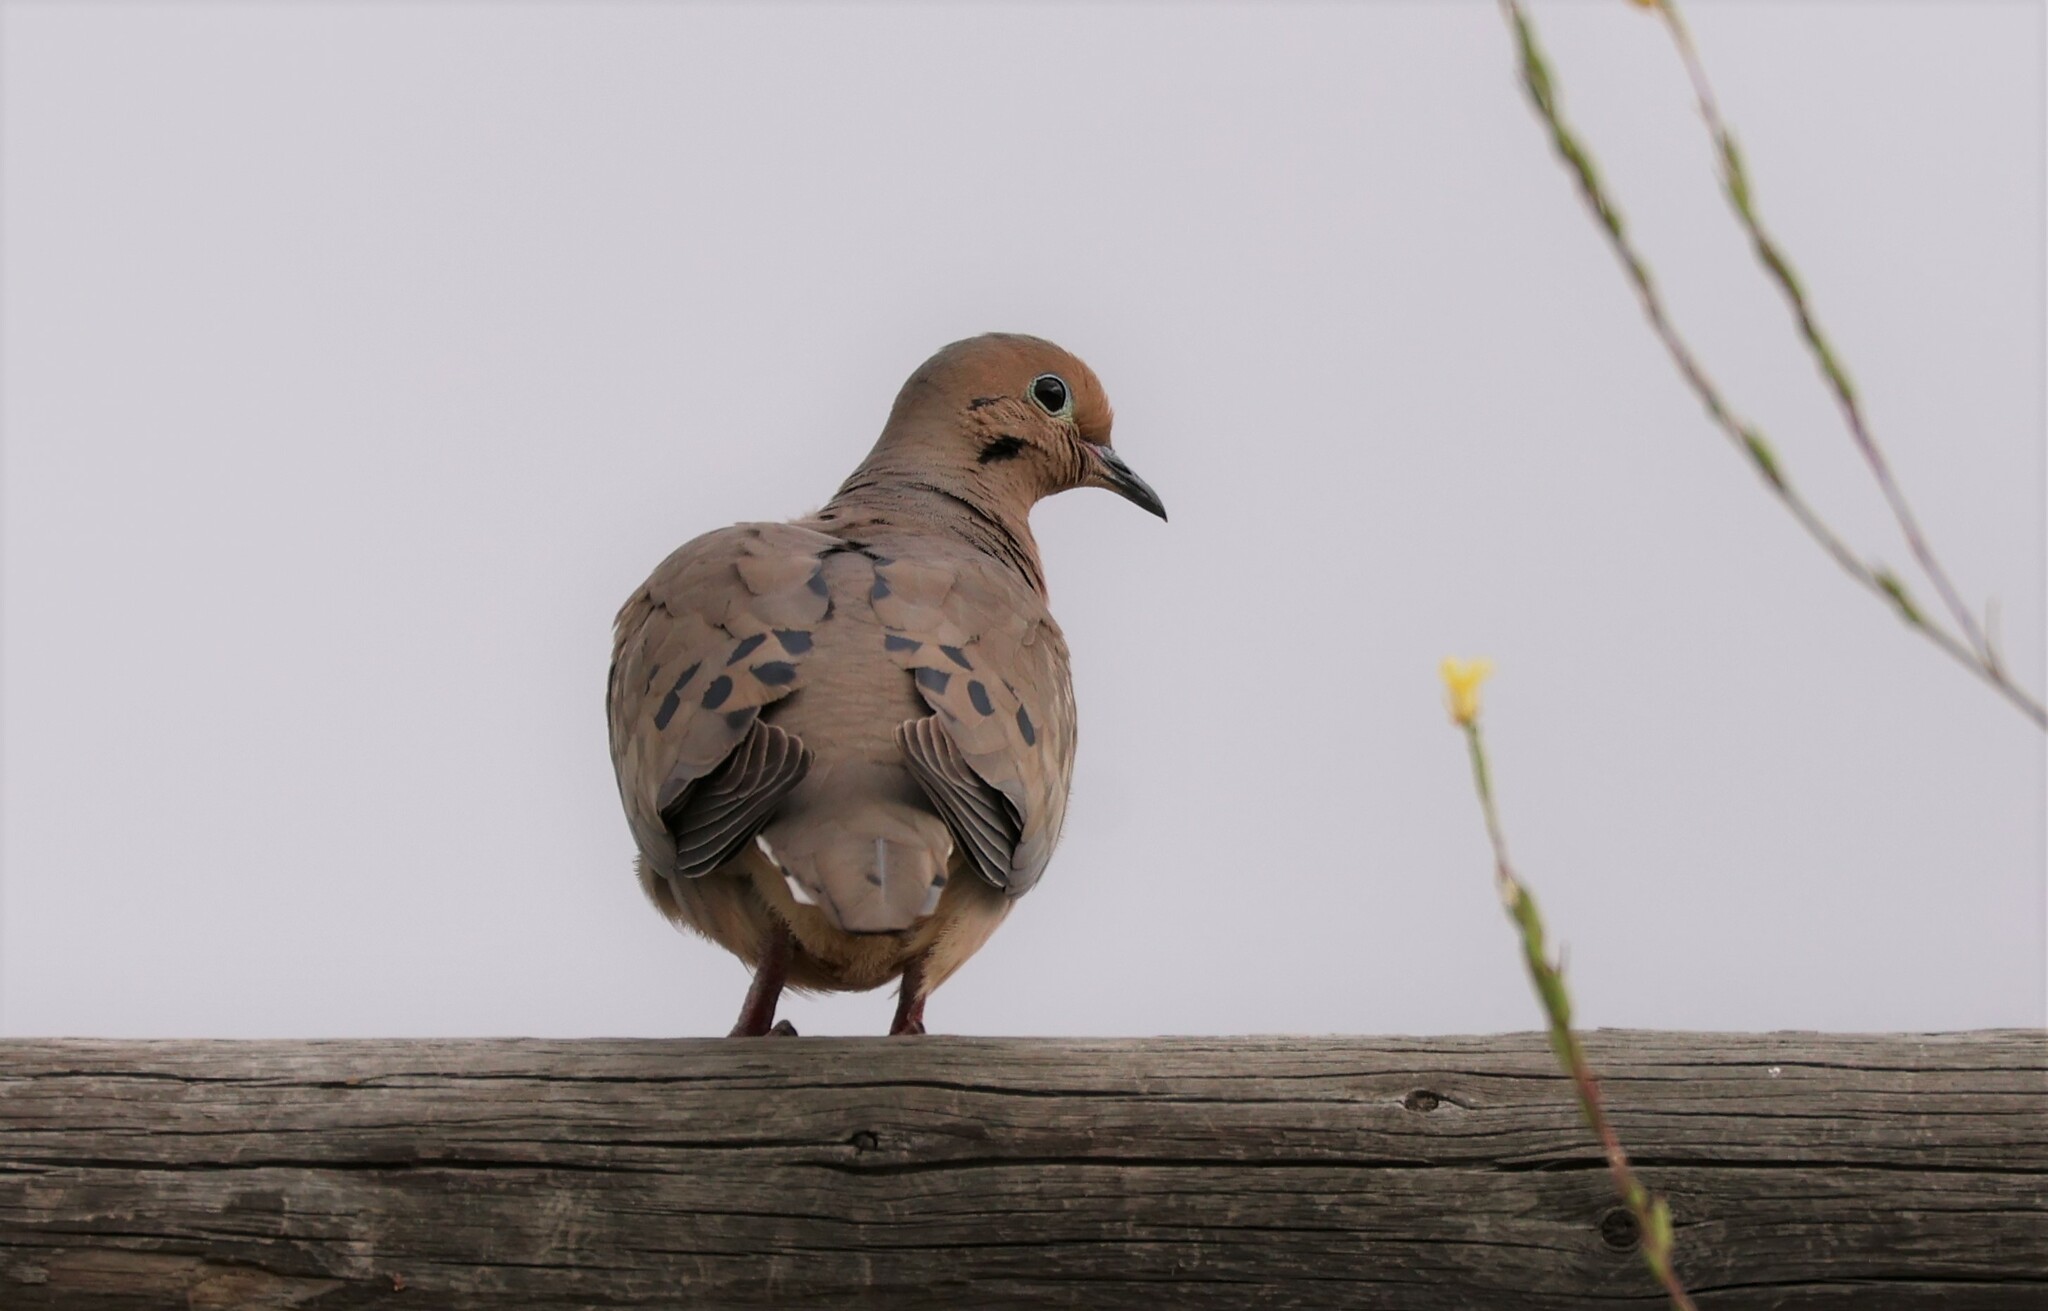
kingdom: Animalia
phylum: Chordata
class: Aves
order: Columbiformes
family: Columbidae
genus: Zenaida
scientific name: Zenaida macroura
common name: Mourning dove
